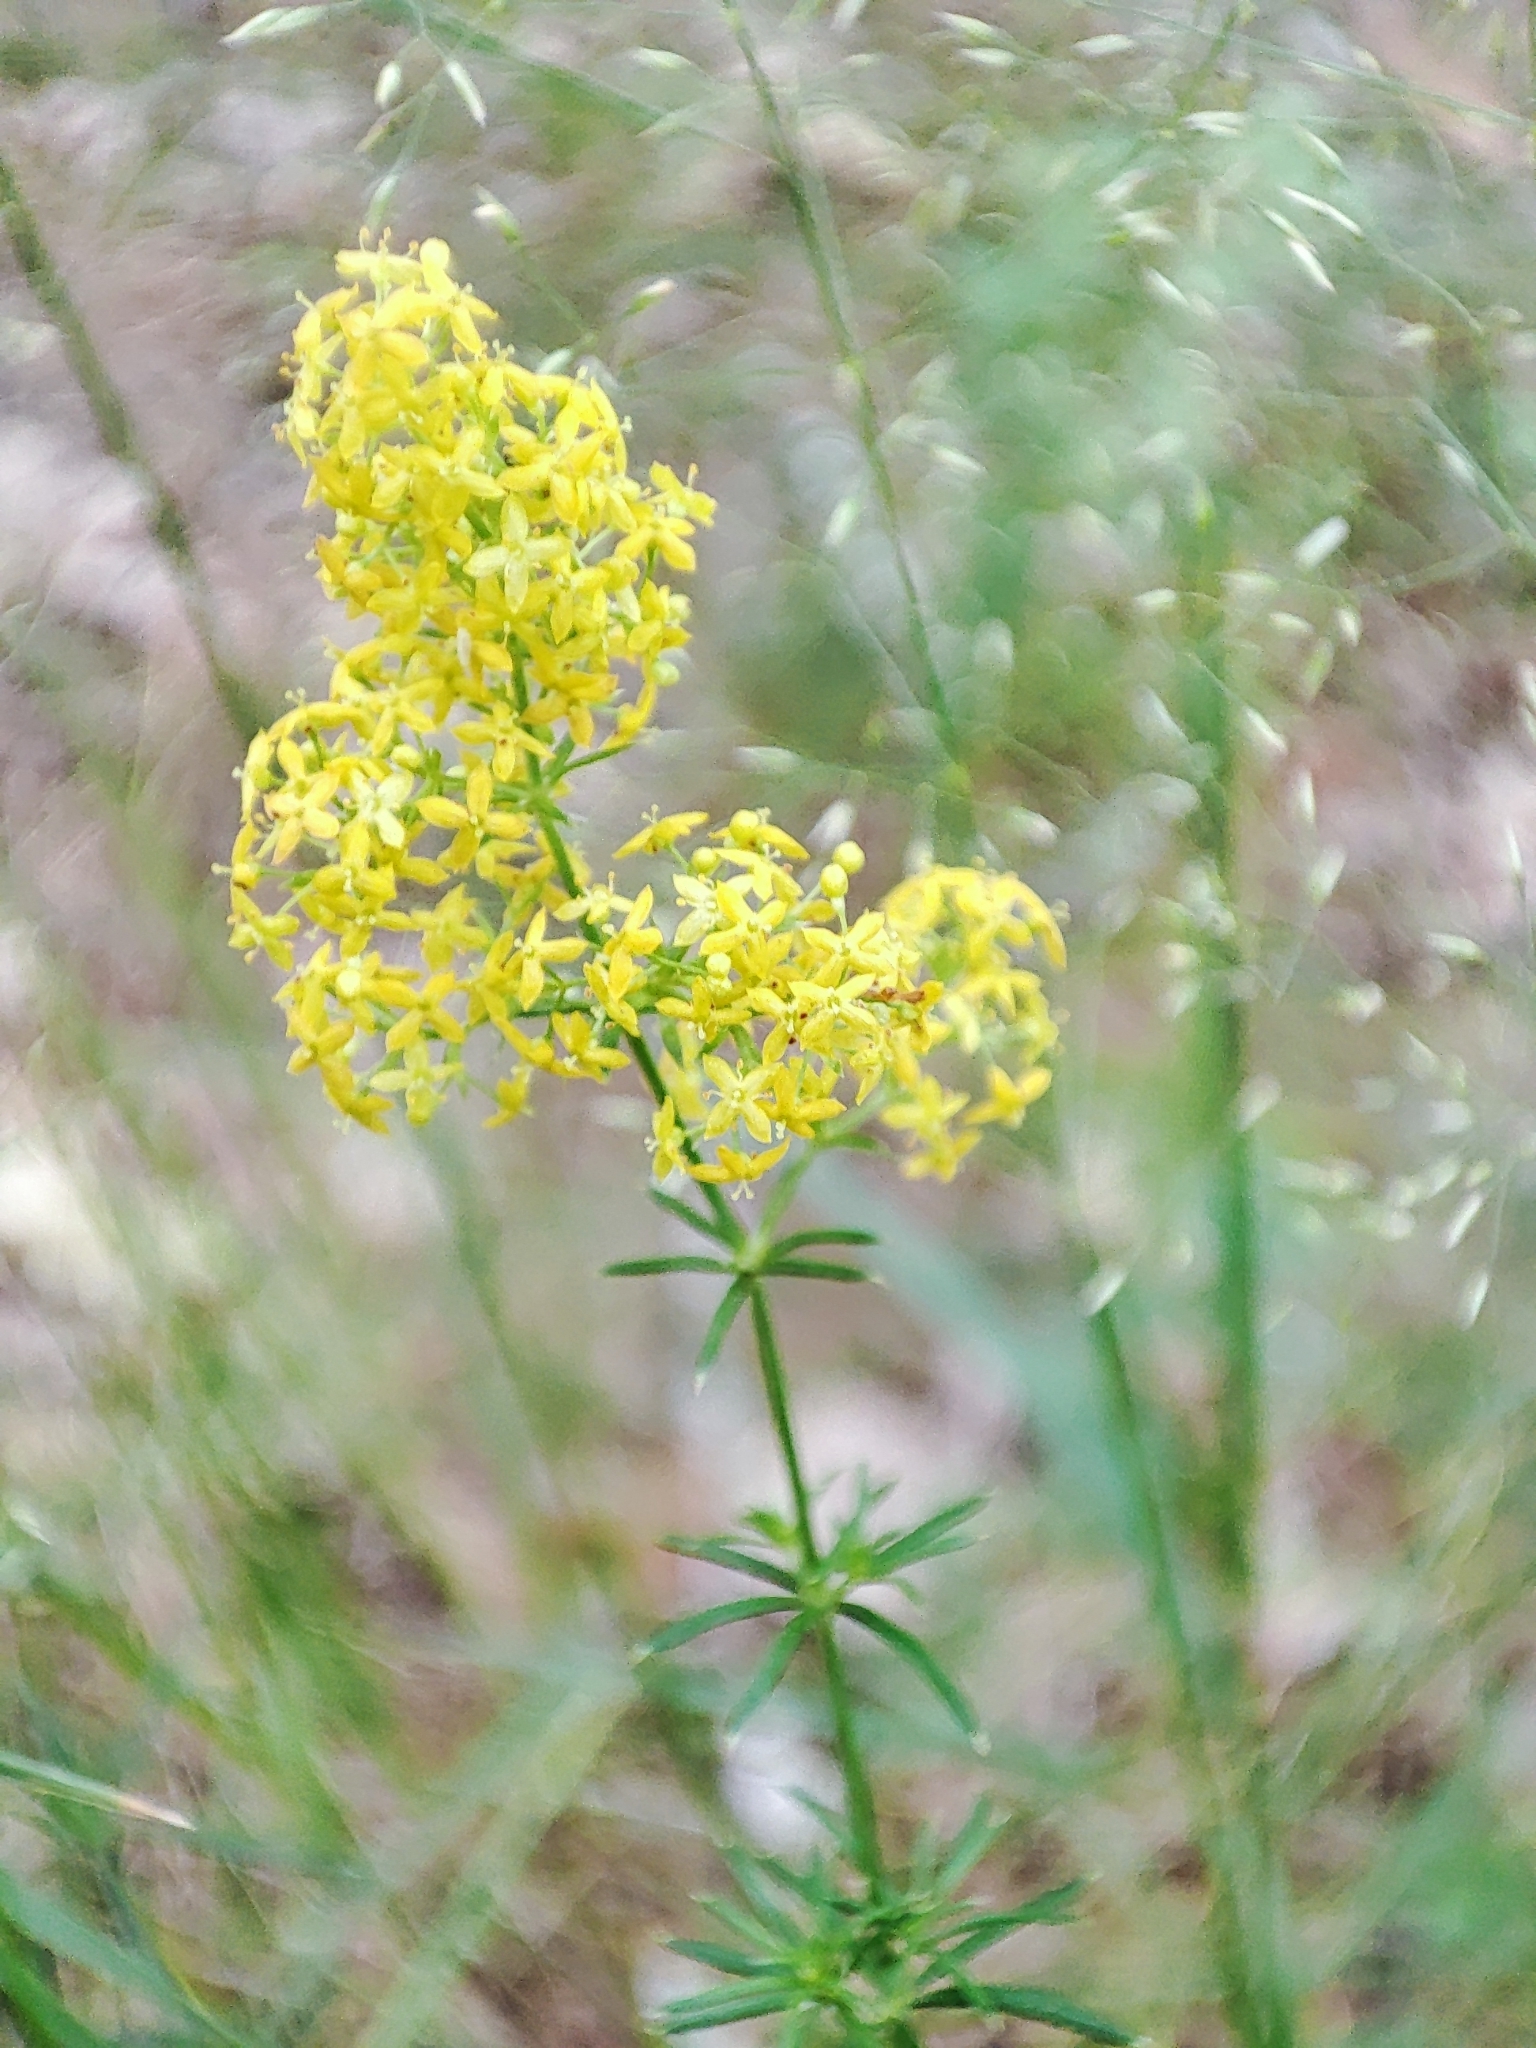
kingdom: Plantae
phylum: Tracheophyta
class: Magnoliopsida
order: Gentianales
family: Rubiaceae
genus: Galium
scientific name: Galium verum
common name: Lady's bedstraw
